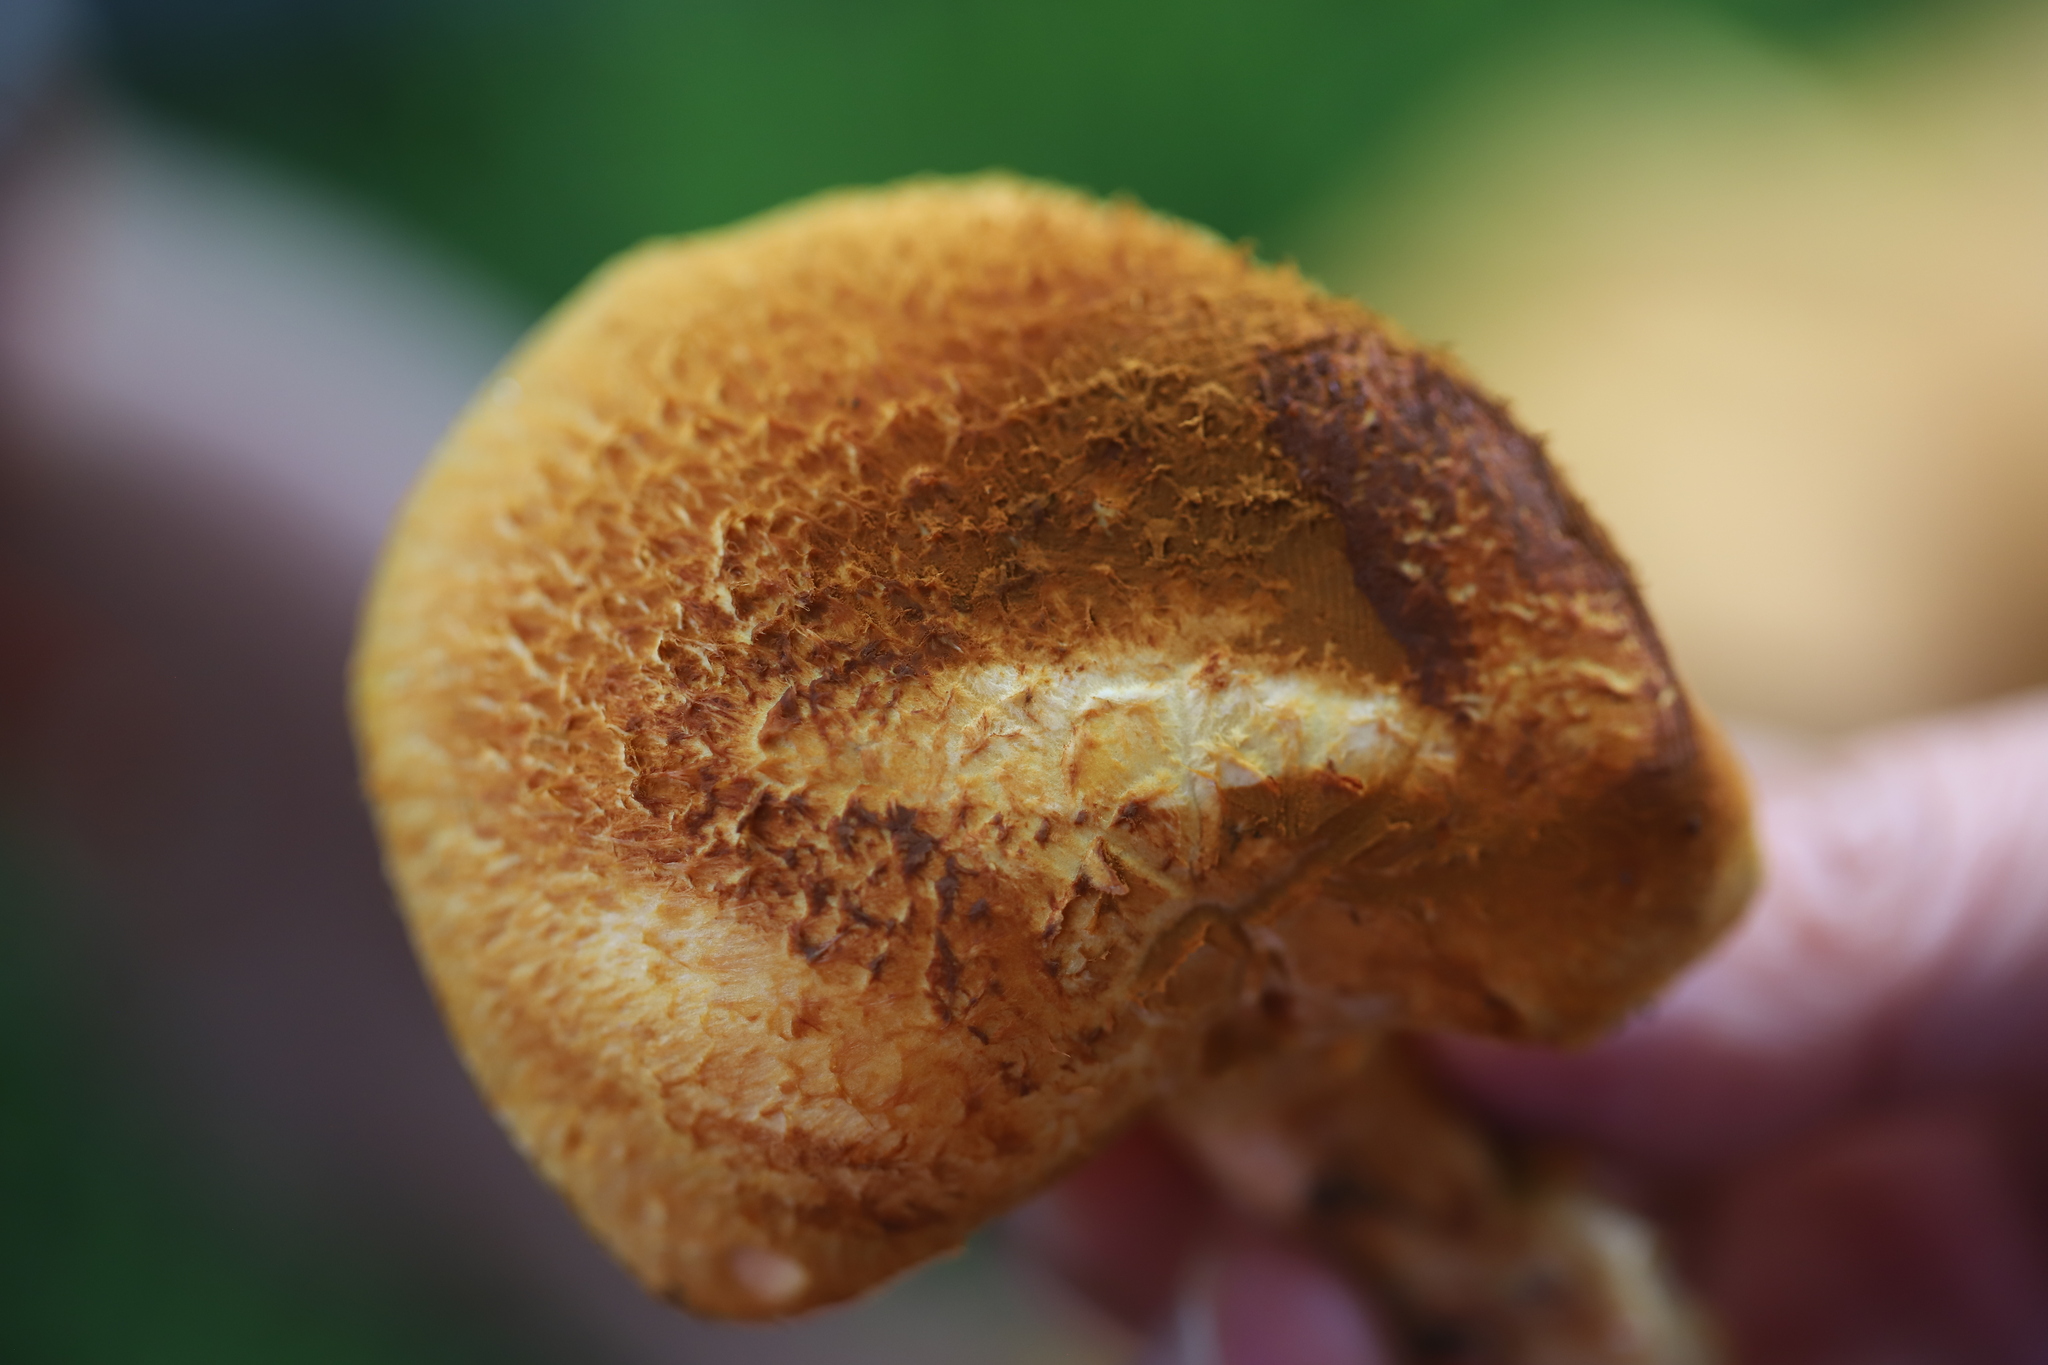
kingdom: Fungi
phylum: Basidiomycota
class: Agaricomycetes
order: Agaricales
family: Hymenogastraceae
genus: Gymnopilus
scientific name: Gymnopilus junonius
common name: Spectacular rustgill
